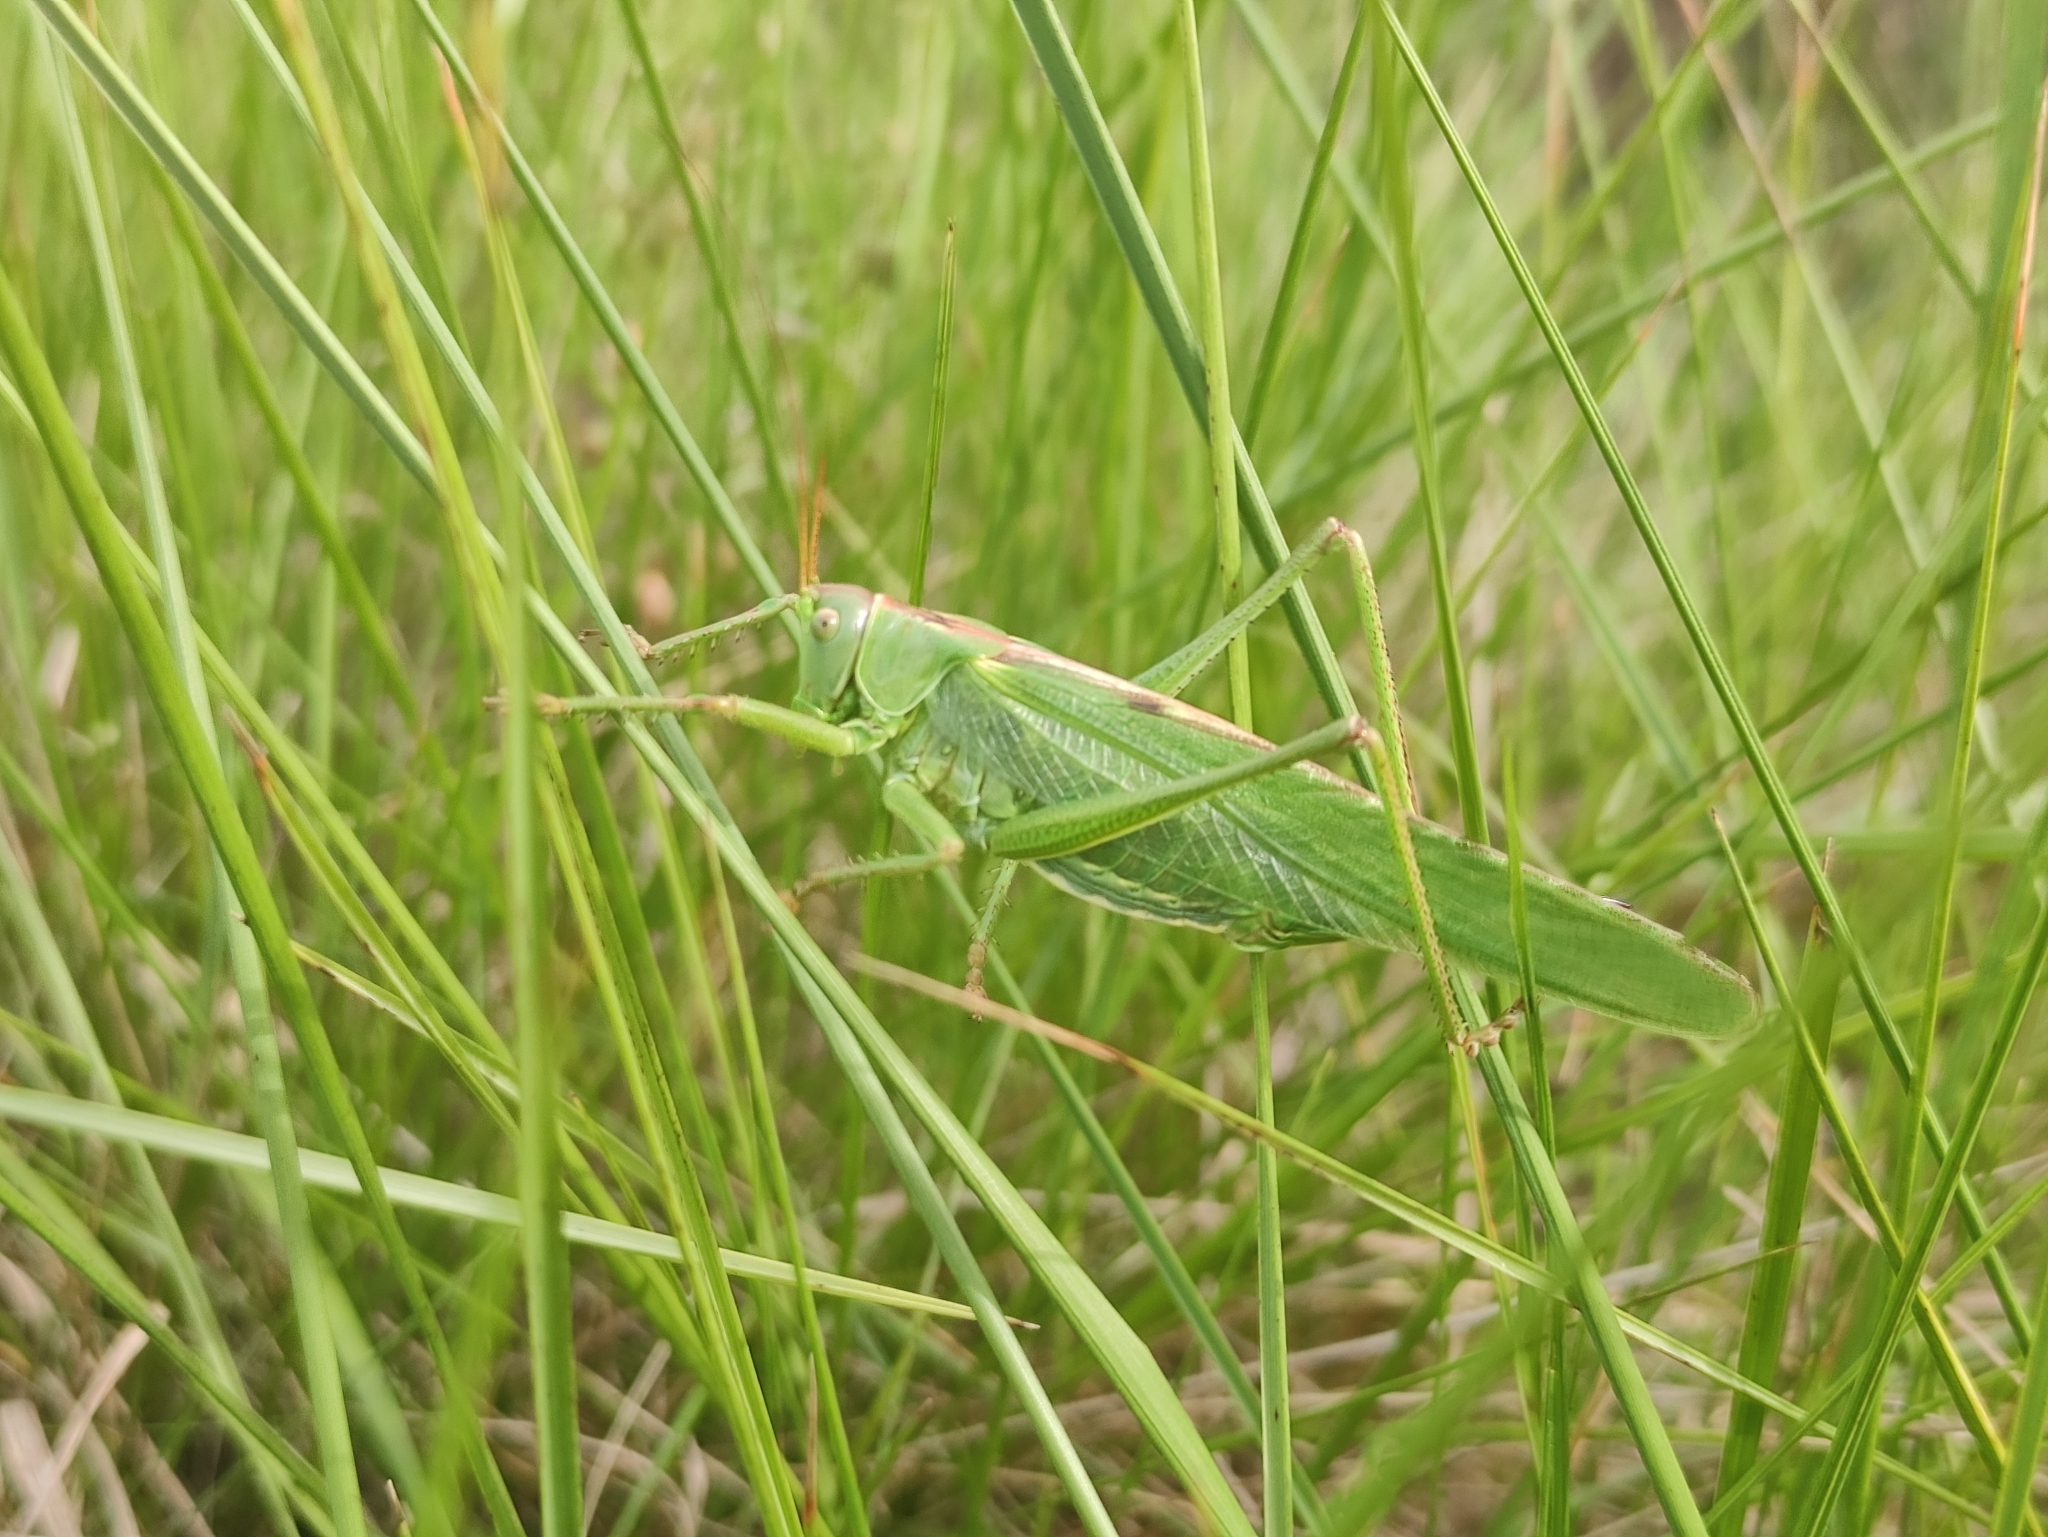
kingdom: Animalia
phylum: Arthropoda
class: Insecta
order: Orthoptera
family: Tettigoniidae
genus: Tettigonia
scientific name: Tettigonia viridissima
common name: Great green bush-cricket
